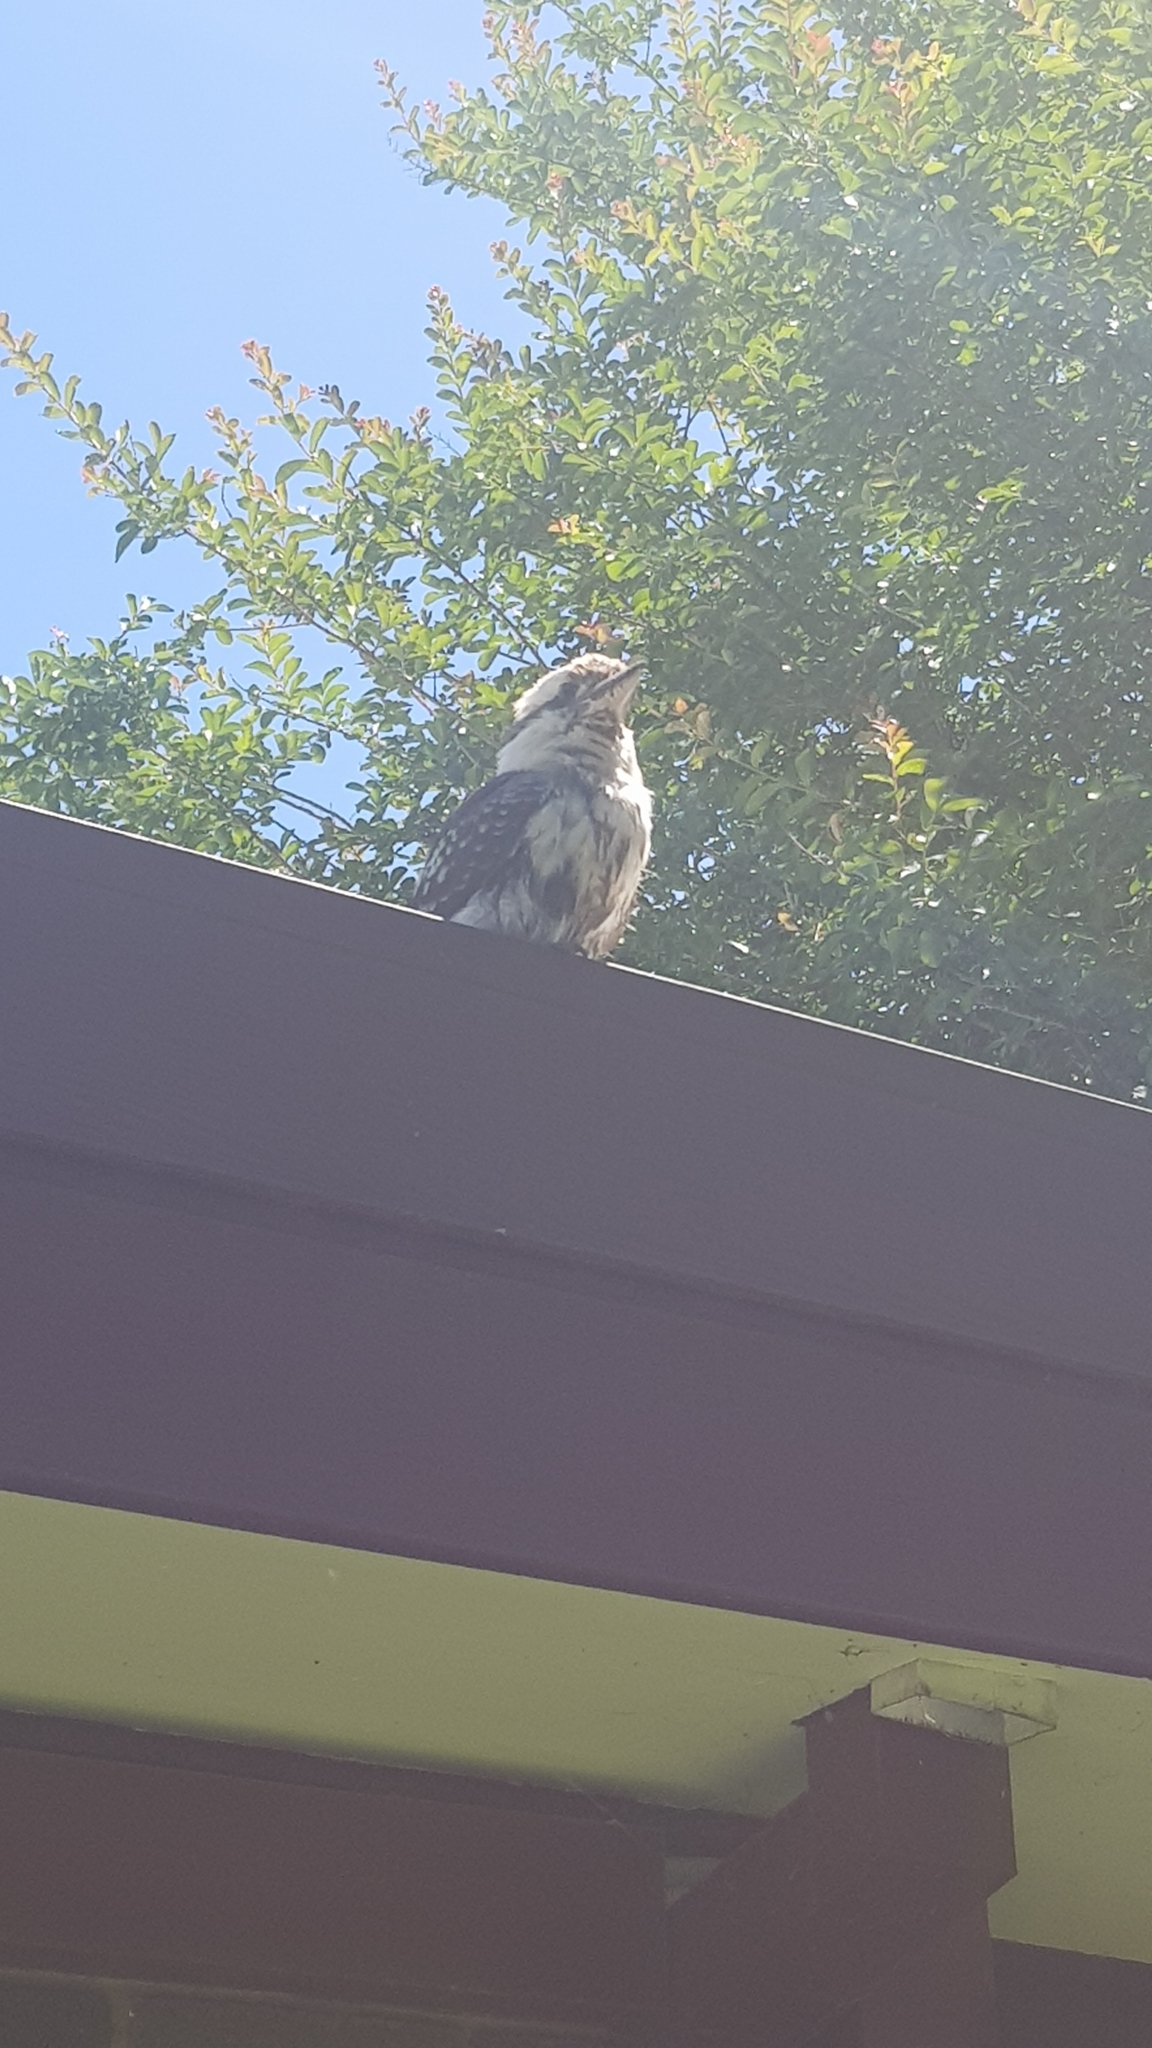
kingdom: Animalia
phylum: Chordata
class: Aves
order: Coraciiformes
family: Alcedinidae
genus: Dacelo
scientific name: Dacelo novaeguineae
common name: Laughing kookaburra
